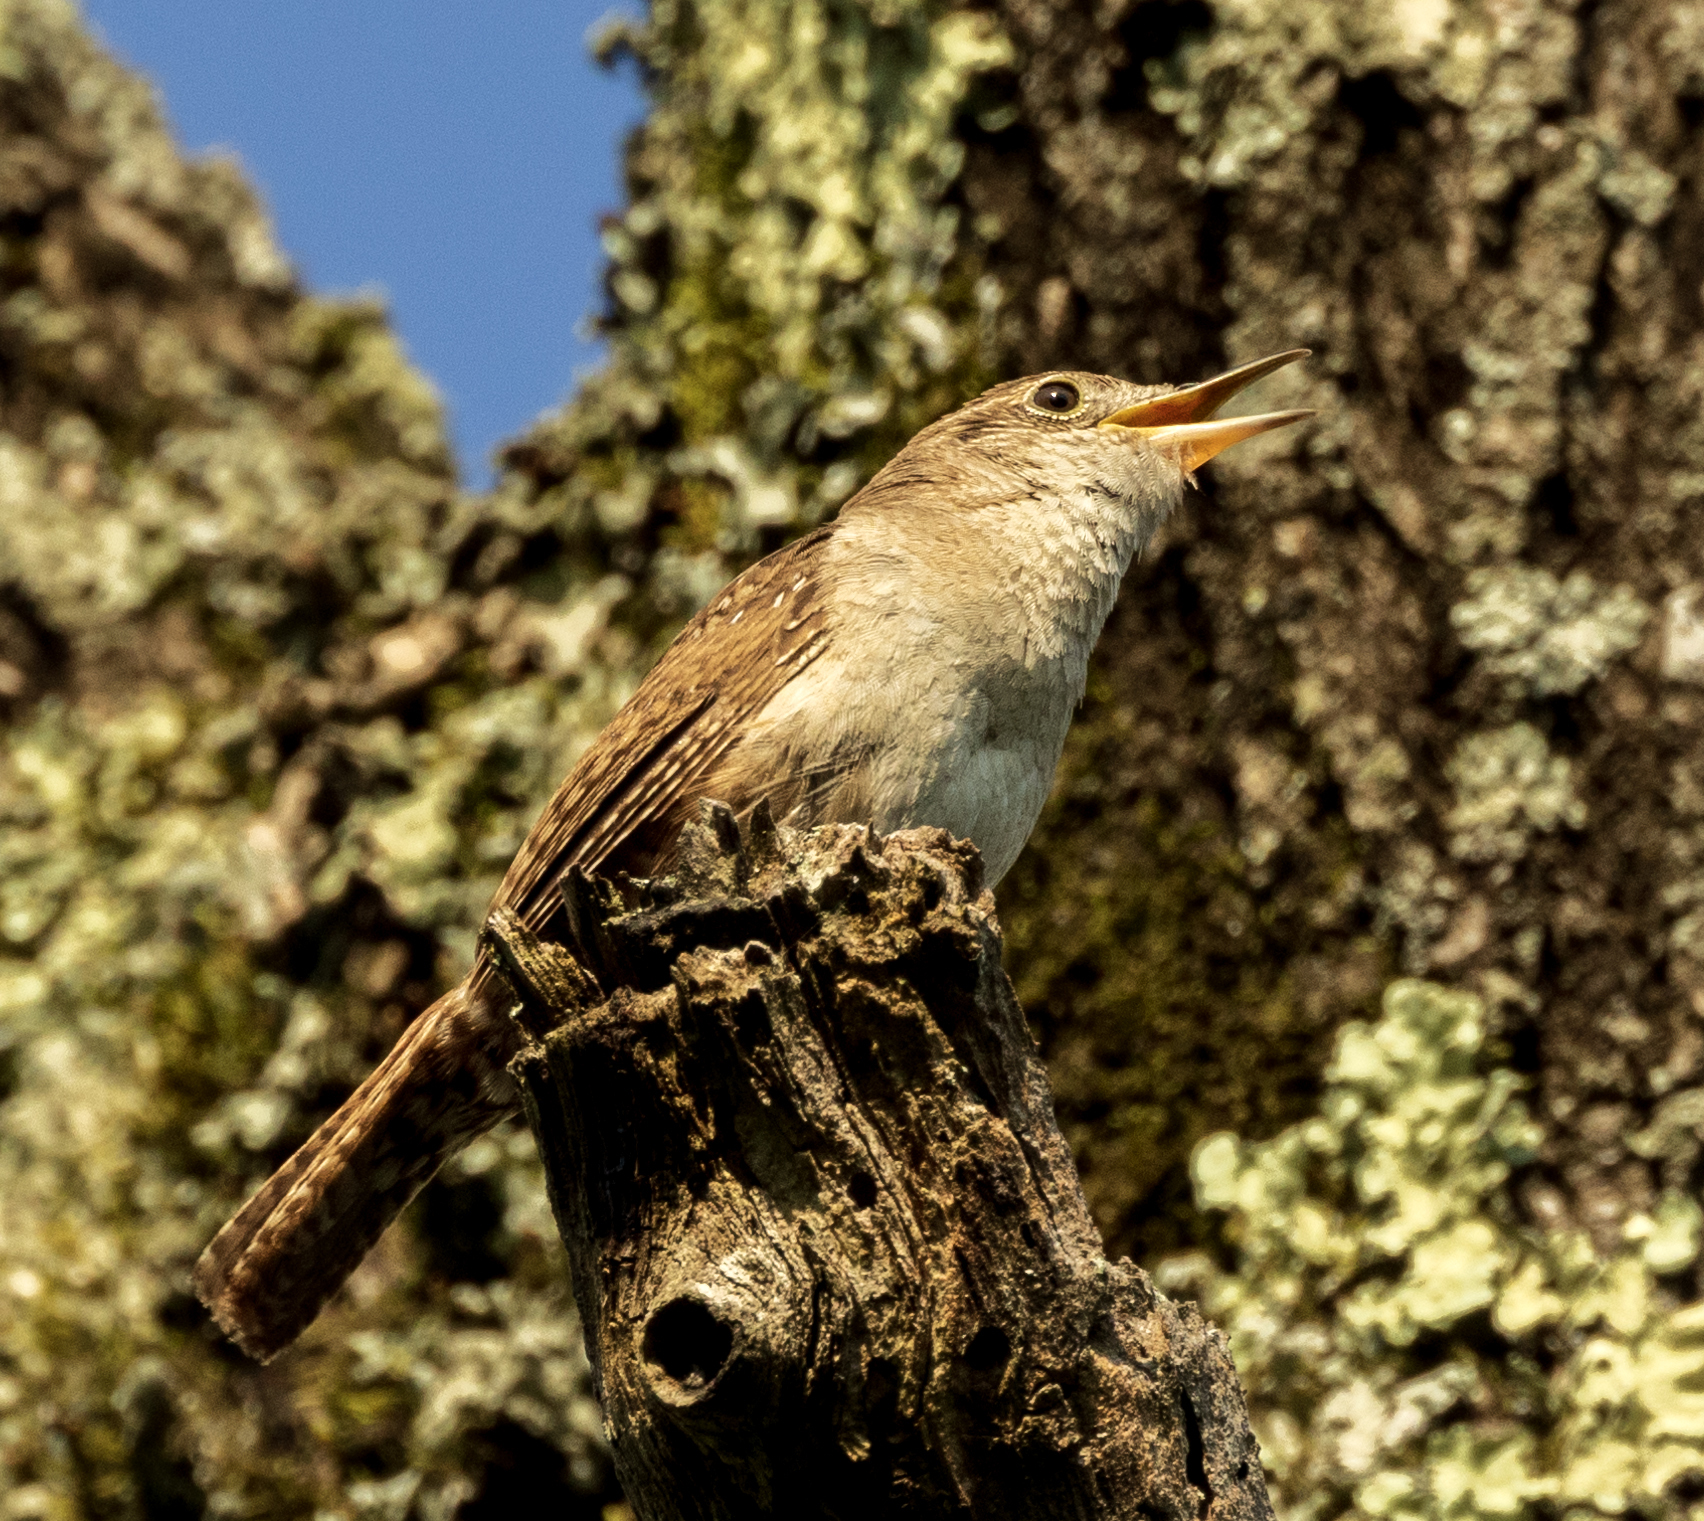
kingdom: Animalia
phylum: Chordata
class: Aves
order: Passeriformes
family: Troglodytidae
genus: Troglodytes
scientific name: Troglodytes aedon
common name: House wren
